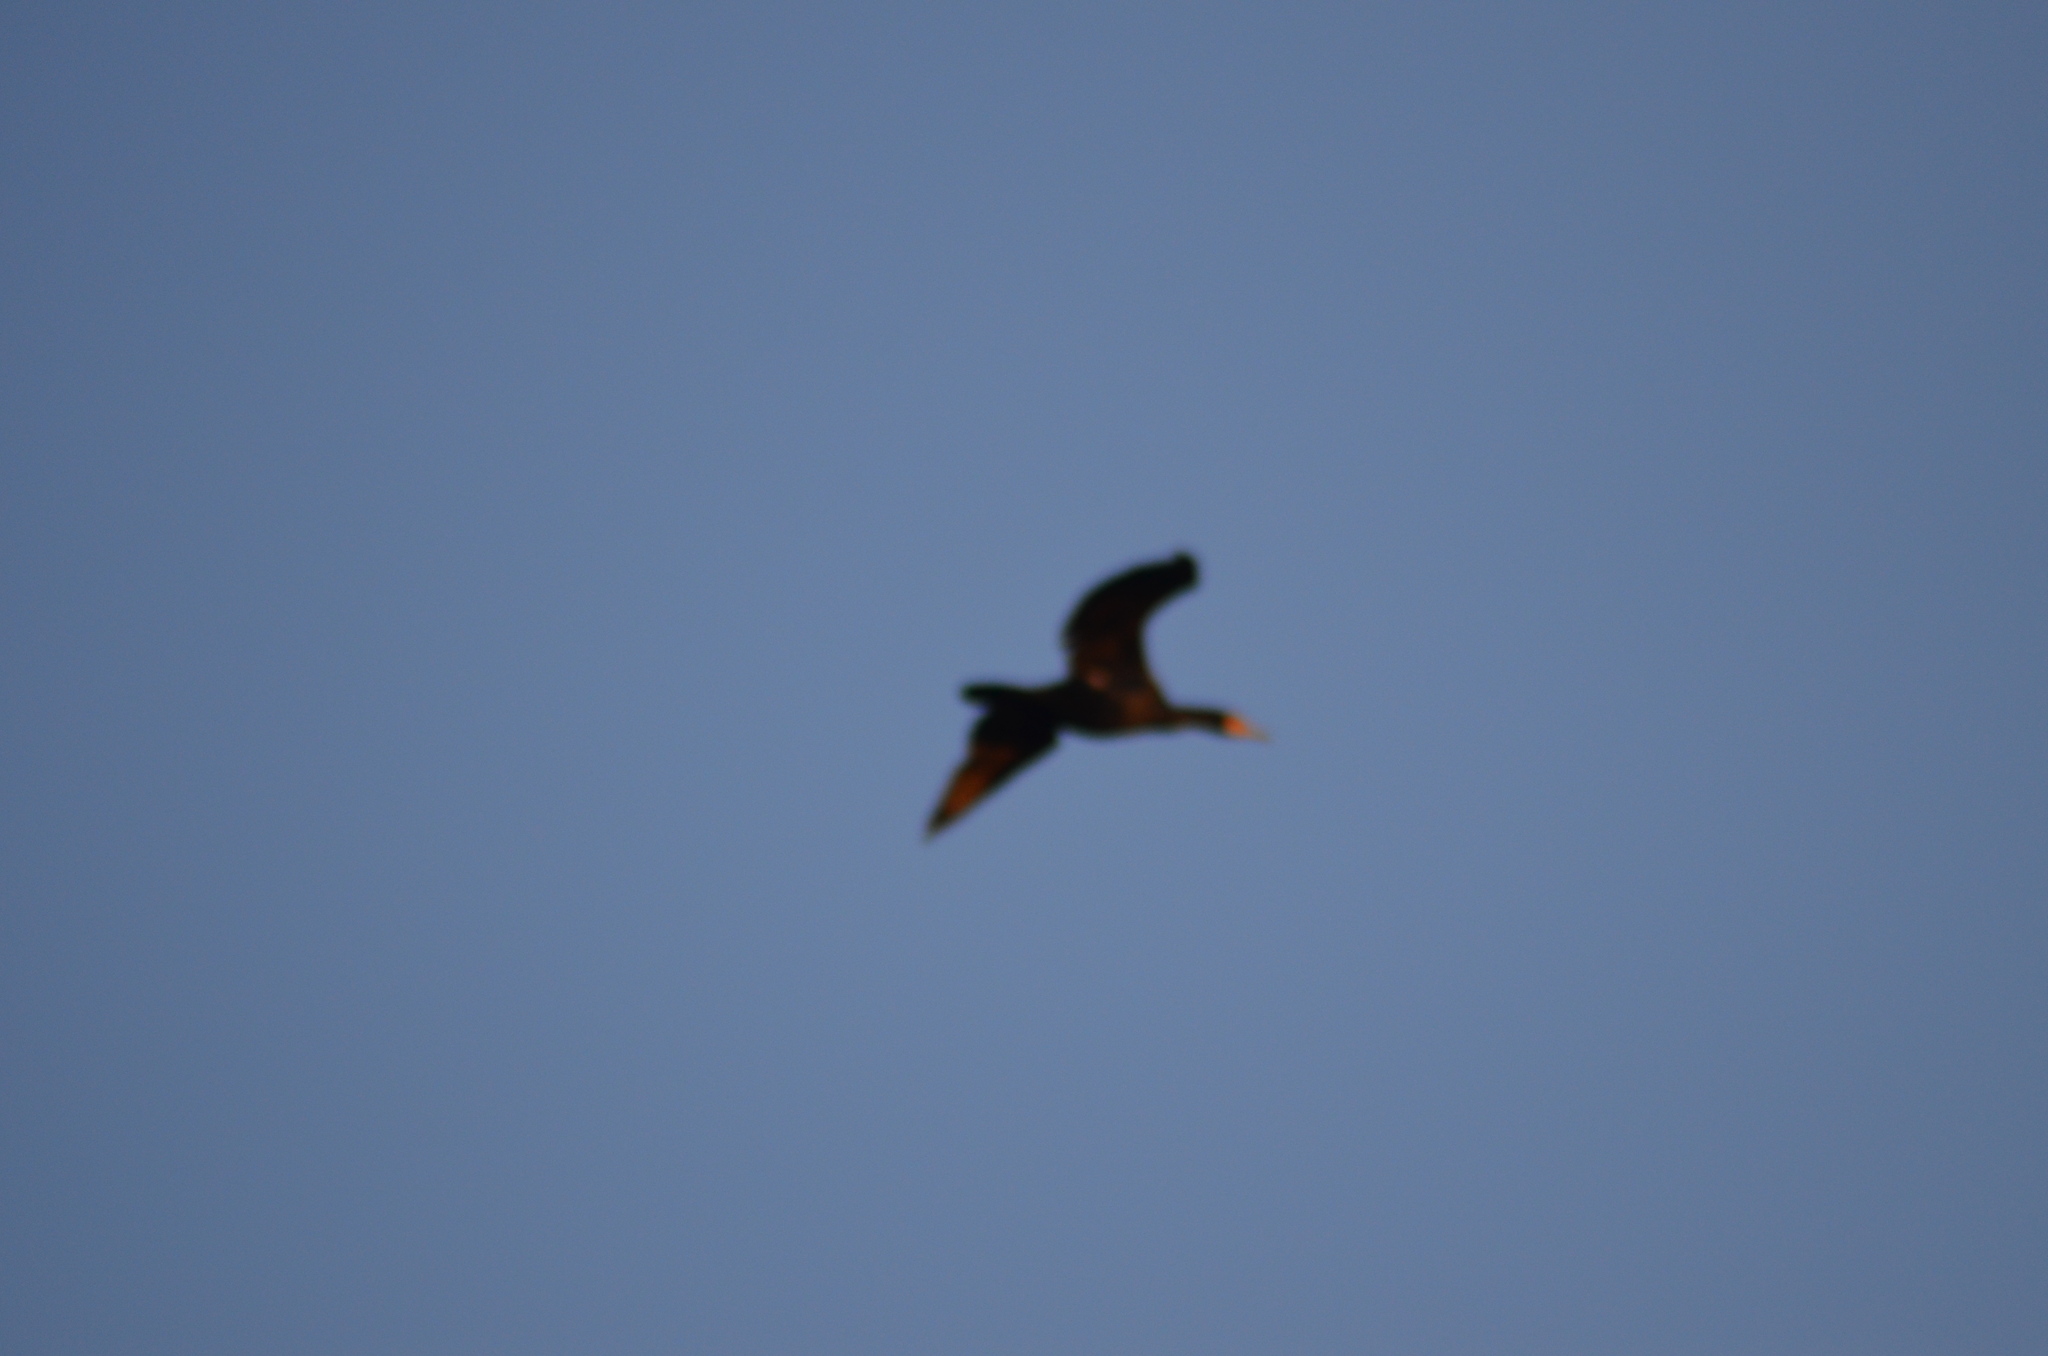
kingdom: Animalia
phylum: Chordata
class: Aves
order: Suliformes
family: Phalacrocoracidae
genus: Phalacrocorax
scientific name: Phalacrocorax carbo
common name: Great cormorant
